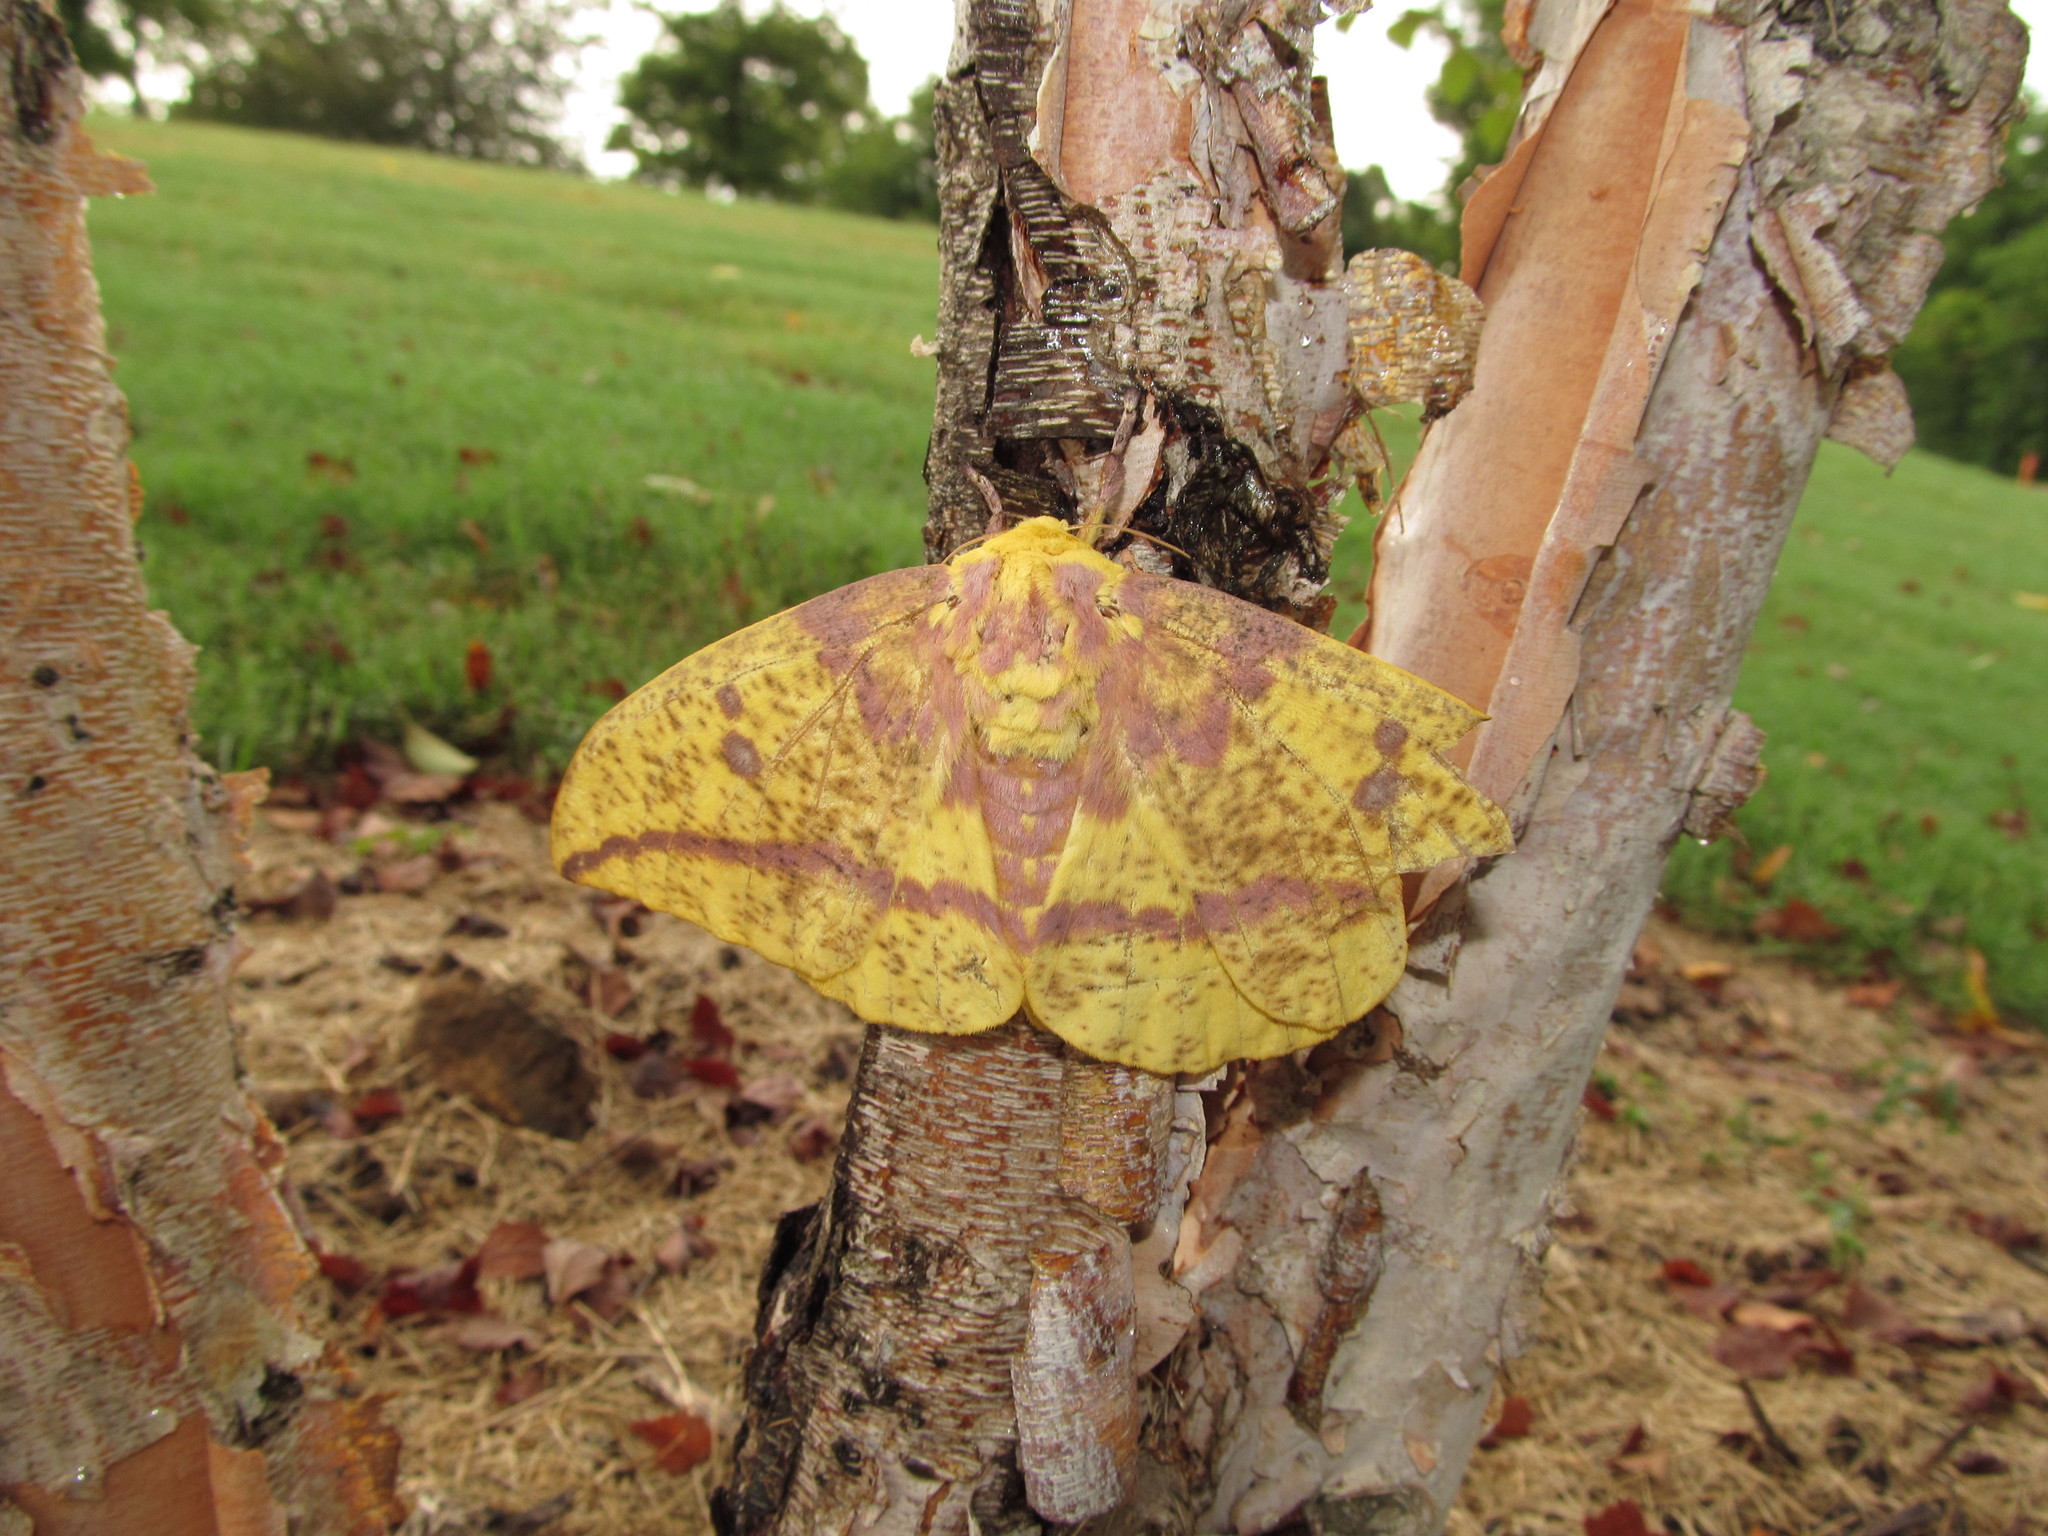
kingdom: Animalia
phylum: Arthropoda
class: Insecta
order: Lepidoptera
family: Saturniidae
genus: Eacles
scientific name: Eacles imperialis
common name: Imperial moth
